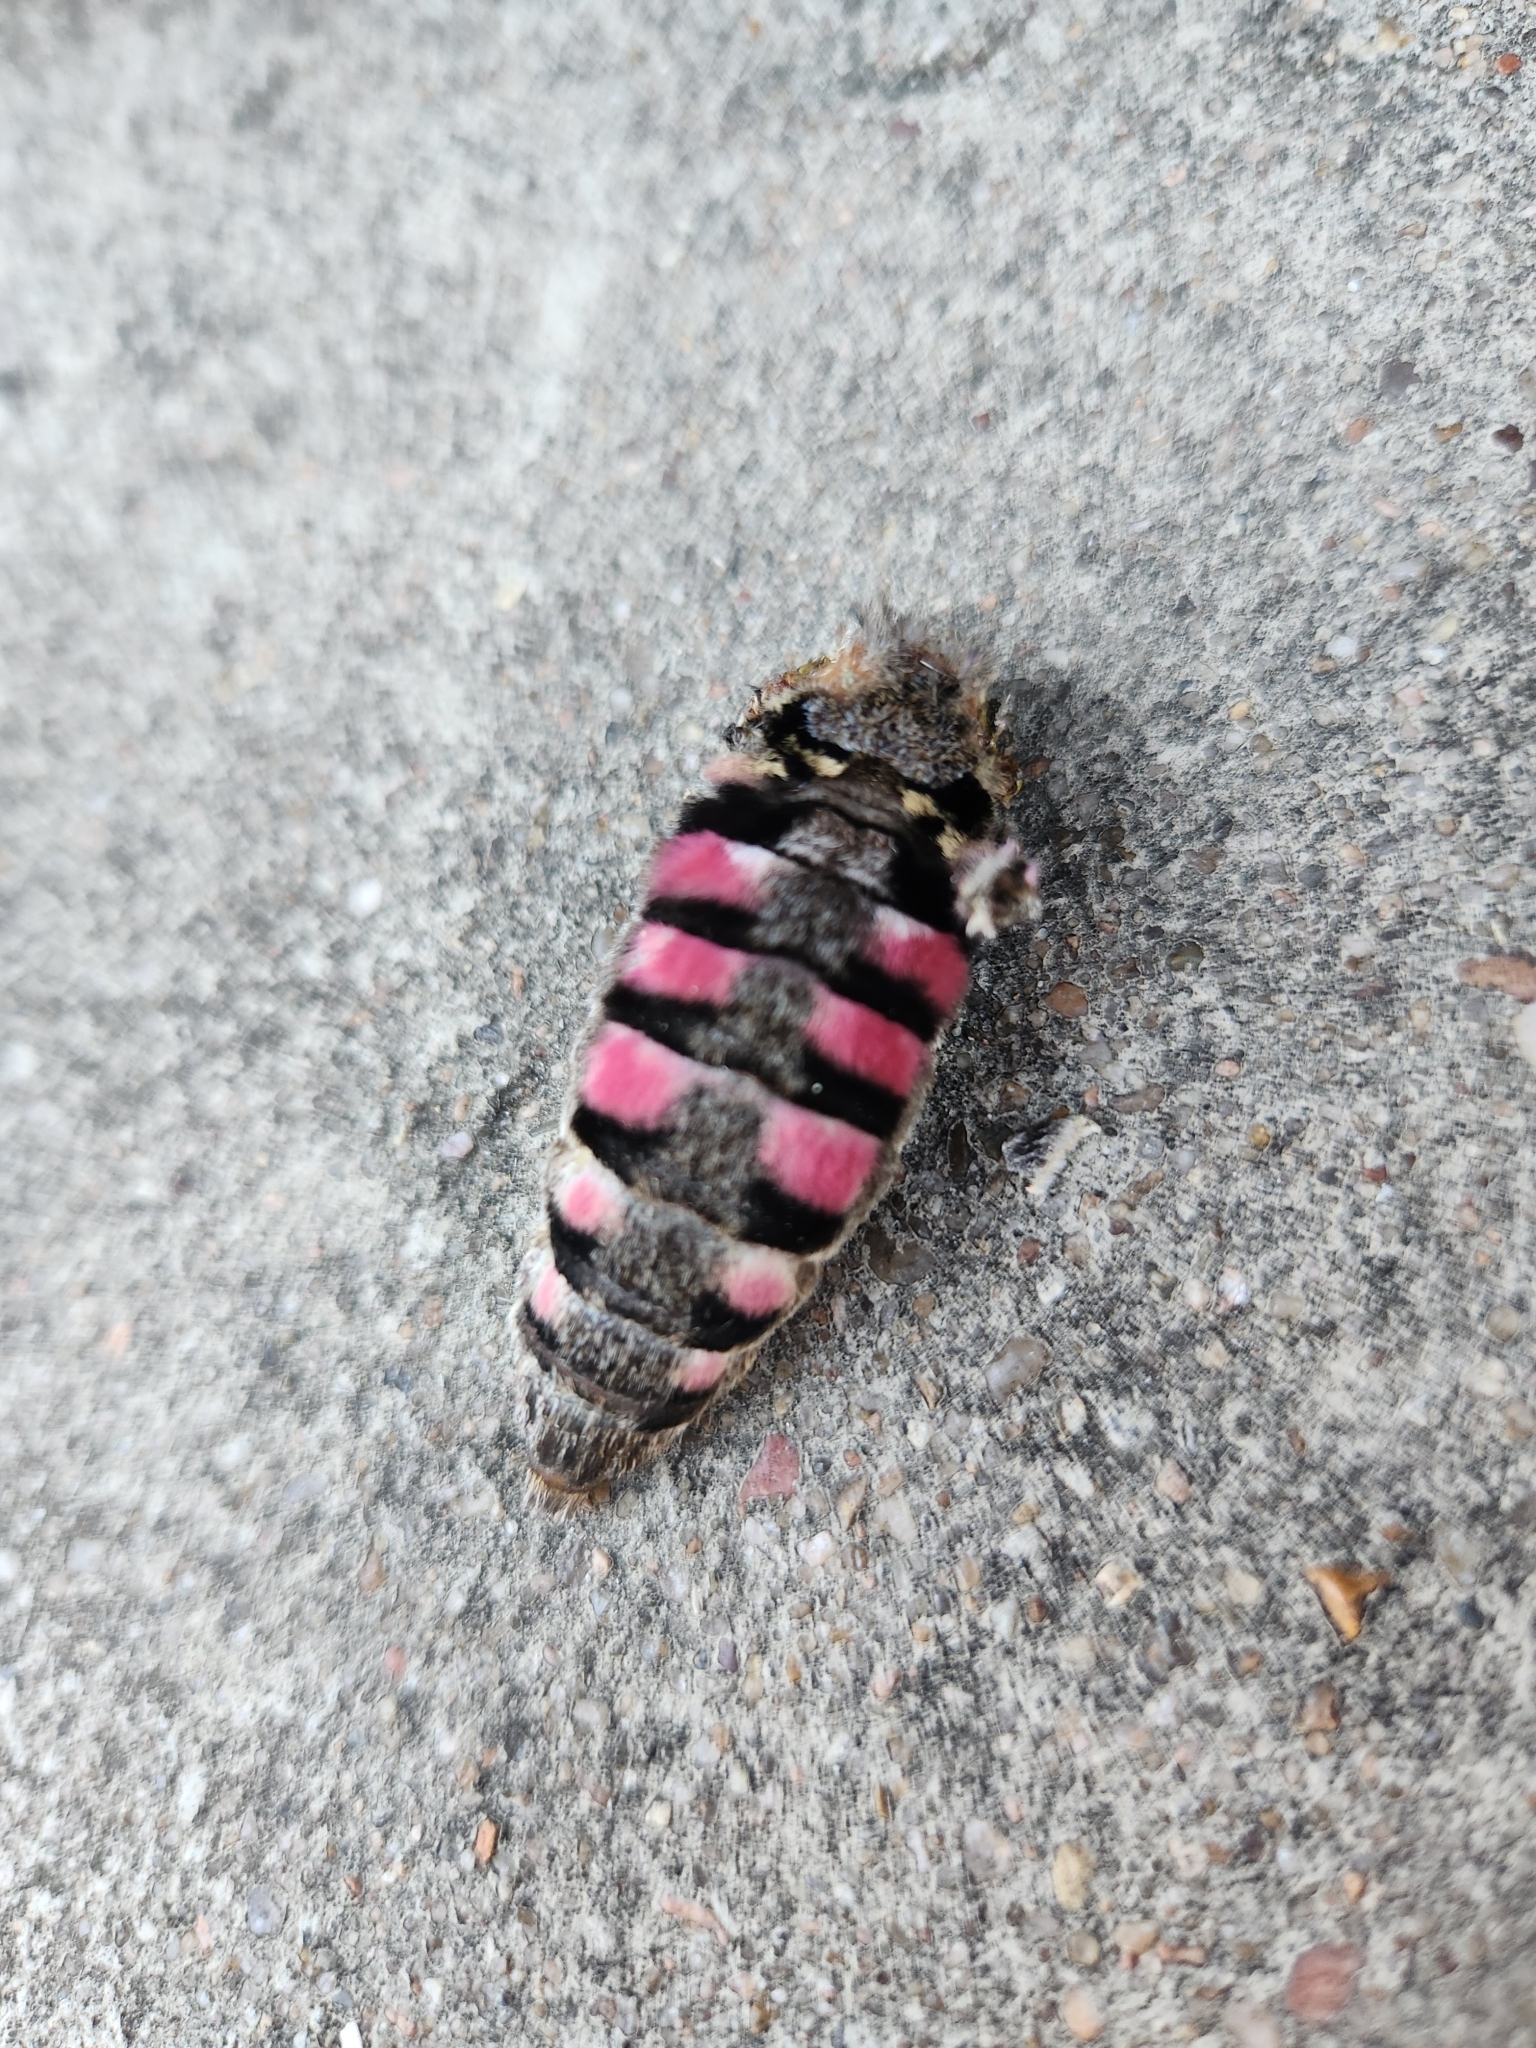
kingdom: Animalia
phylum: Arthropoda
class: Insecta
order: Lepidoptera
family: Sphingidae
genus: Agrius
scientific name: Agrius cingulata
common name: Pink-spotted hawkmoth
